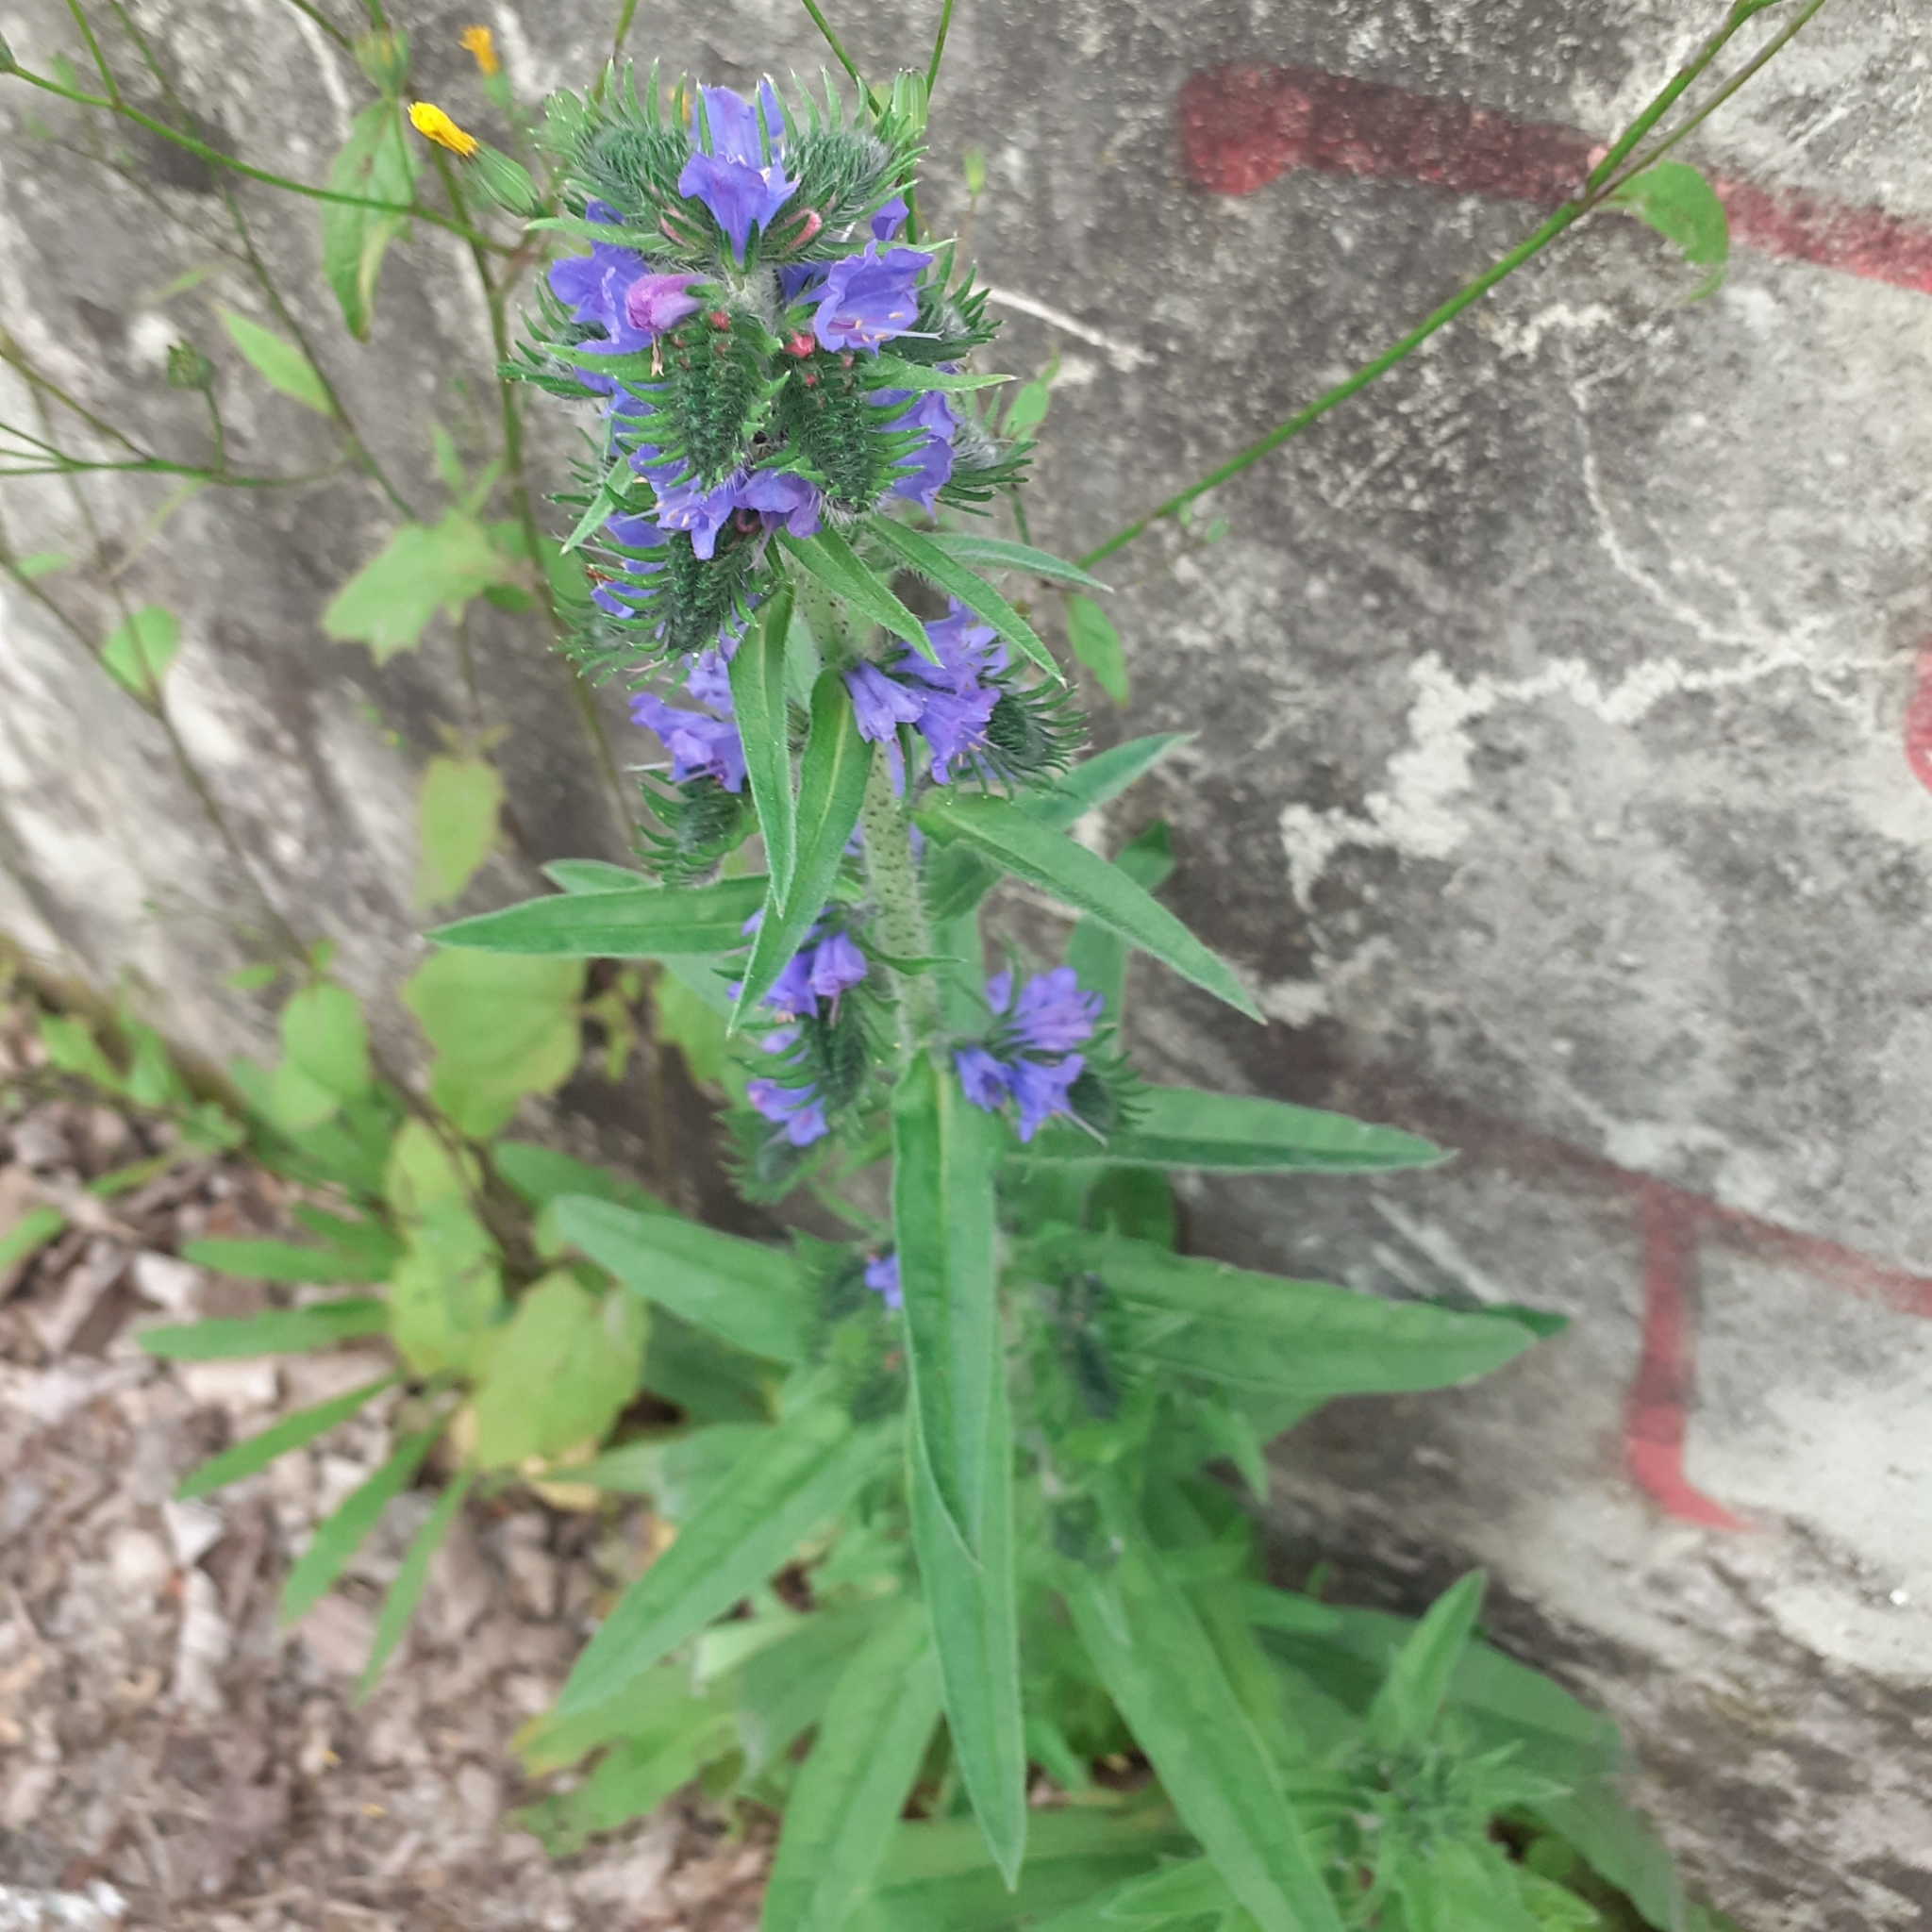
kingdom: Plantae
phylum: Tracheophyta
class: Magnoliopsida
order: Boraginales
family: Boraginaceae
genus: Echium
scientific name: Echium vulgare
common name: Common viper's bugloss
